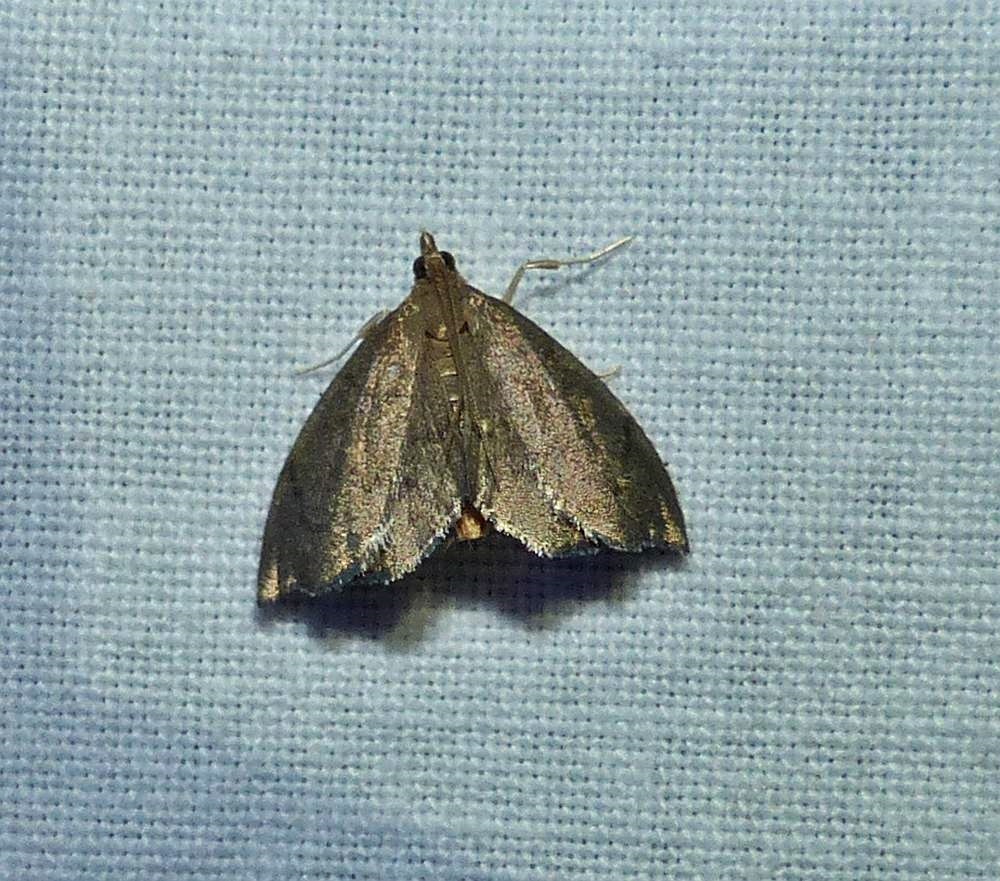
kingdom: Animalia
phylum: Arthropoda
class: Insecta
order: Lepidoptera
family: Crambidae
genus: Perispasta
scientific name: Perispasta caeculalis
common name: Titian peale's moth
